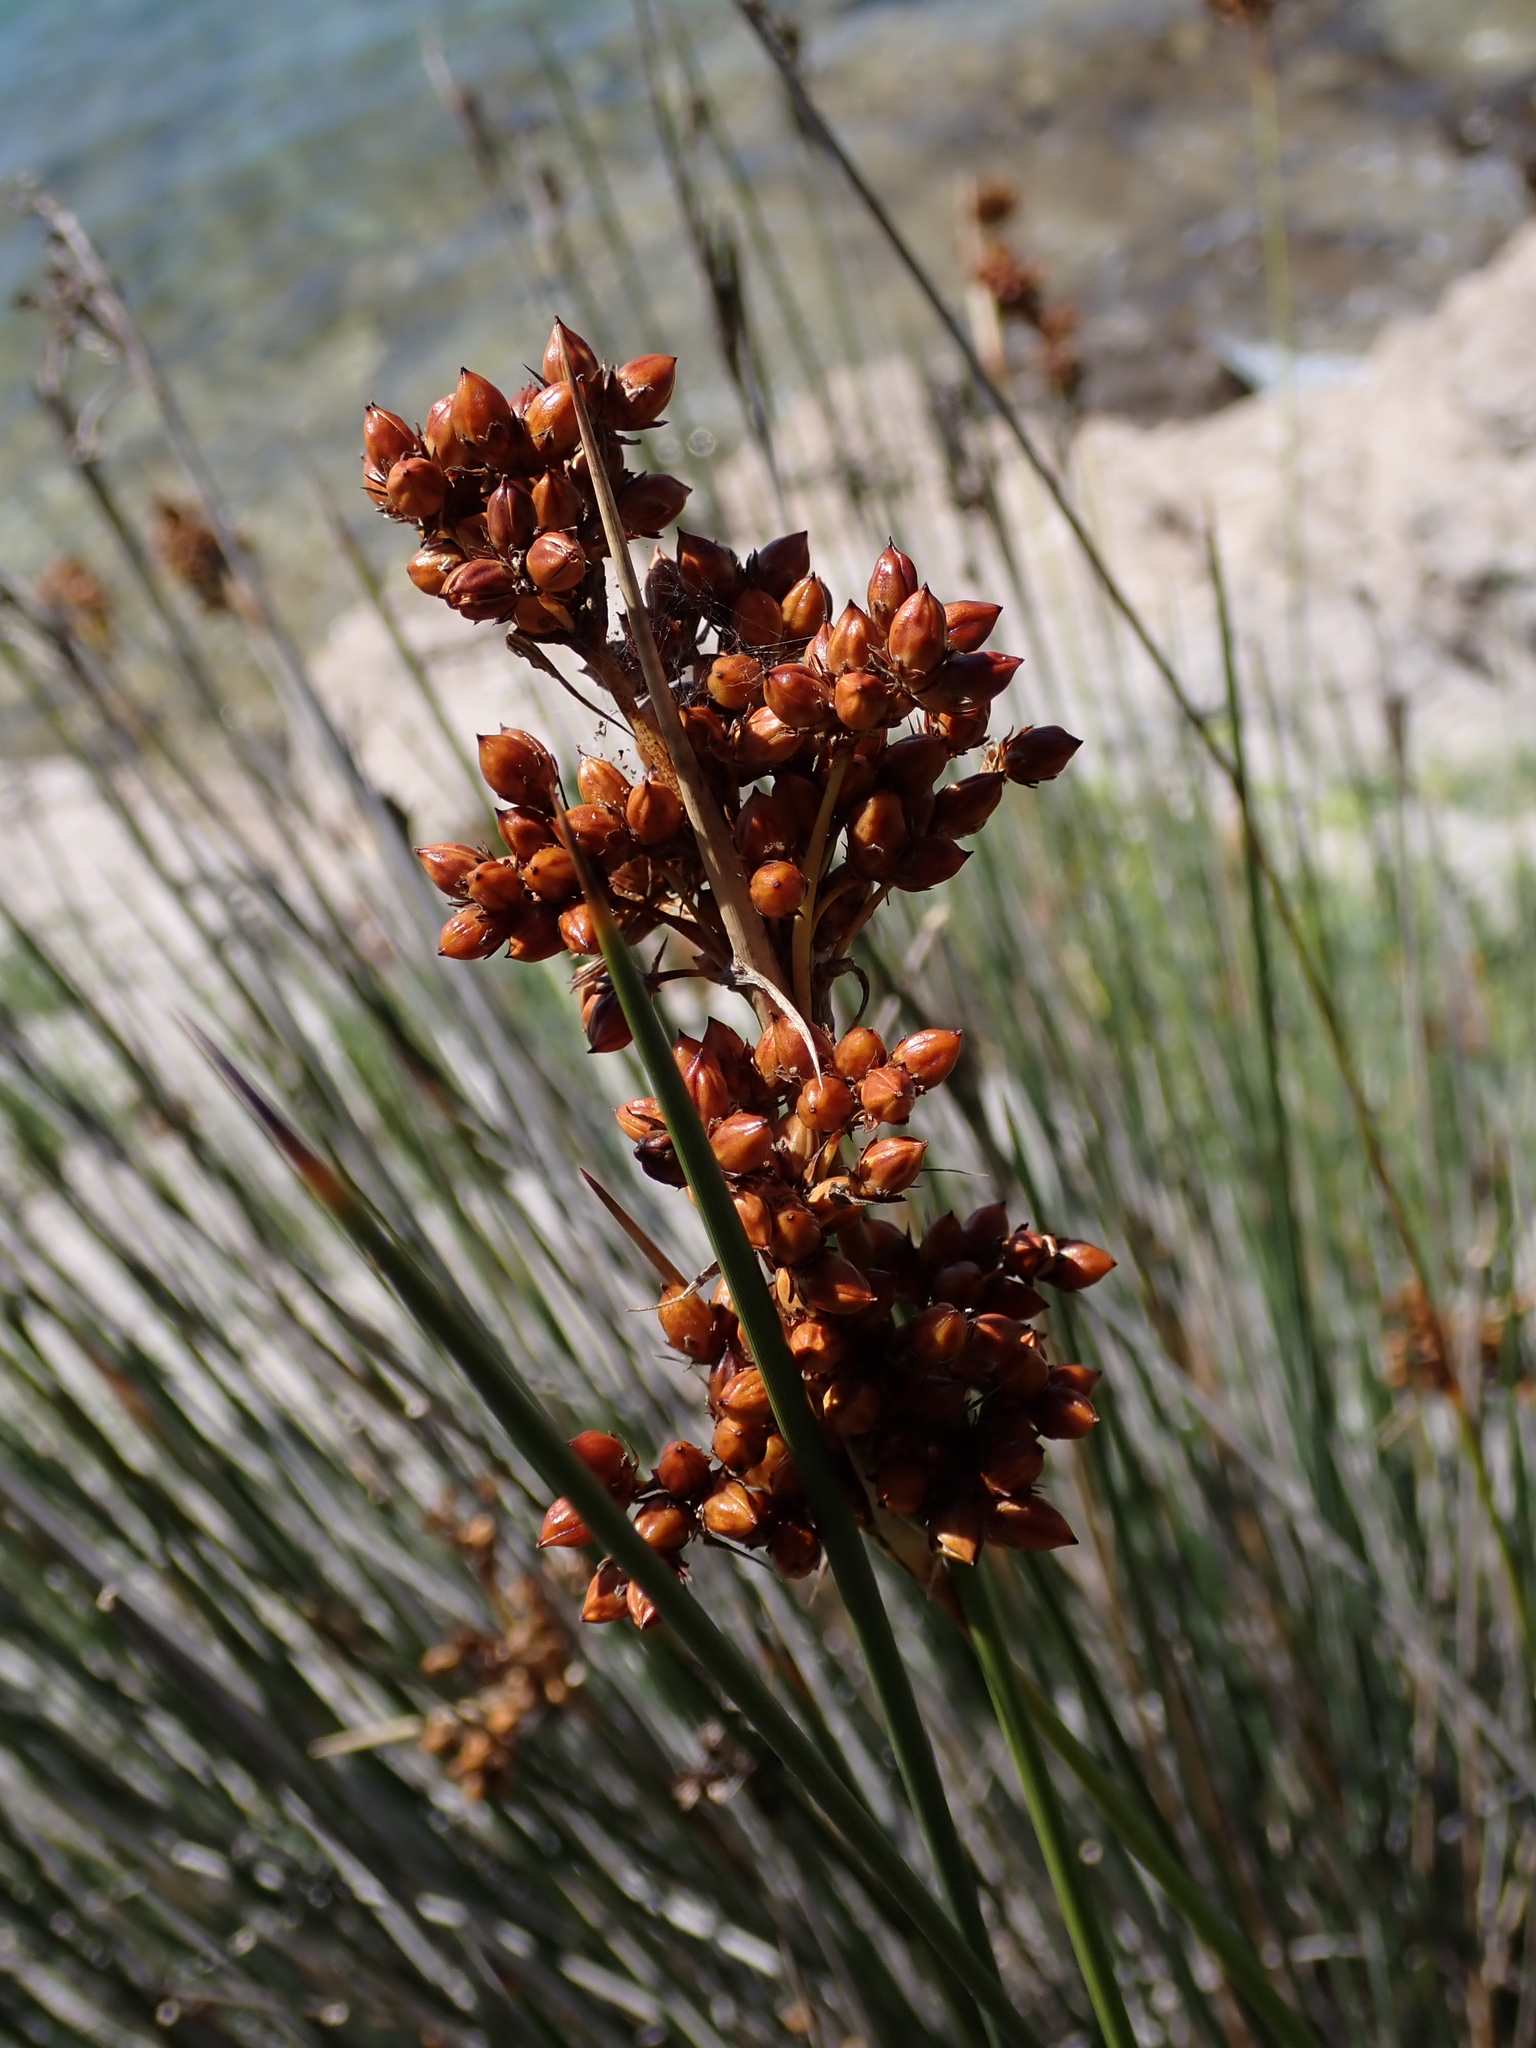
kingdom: Plantae
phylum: Tracheophyta
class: Liliopsida
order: Poales
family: Juncaceae
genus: Juncus
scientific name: Juncus acutus
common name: Sharp rush
